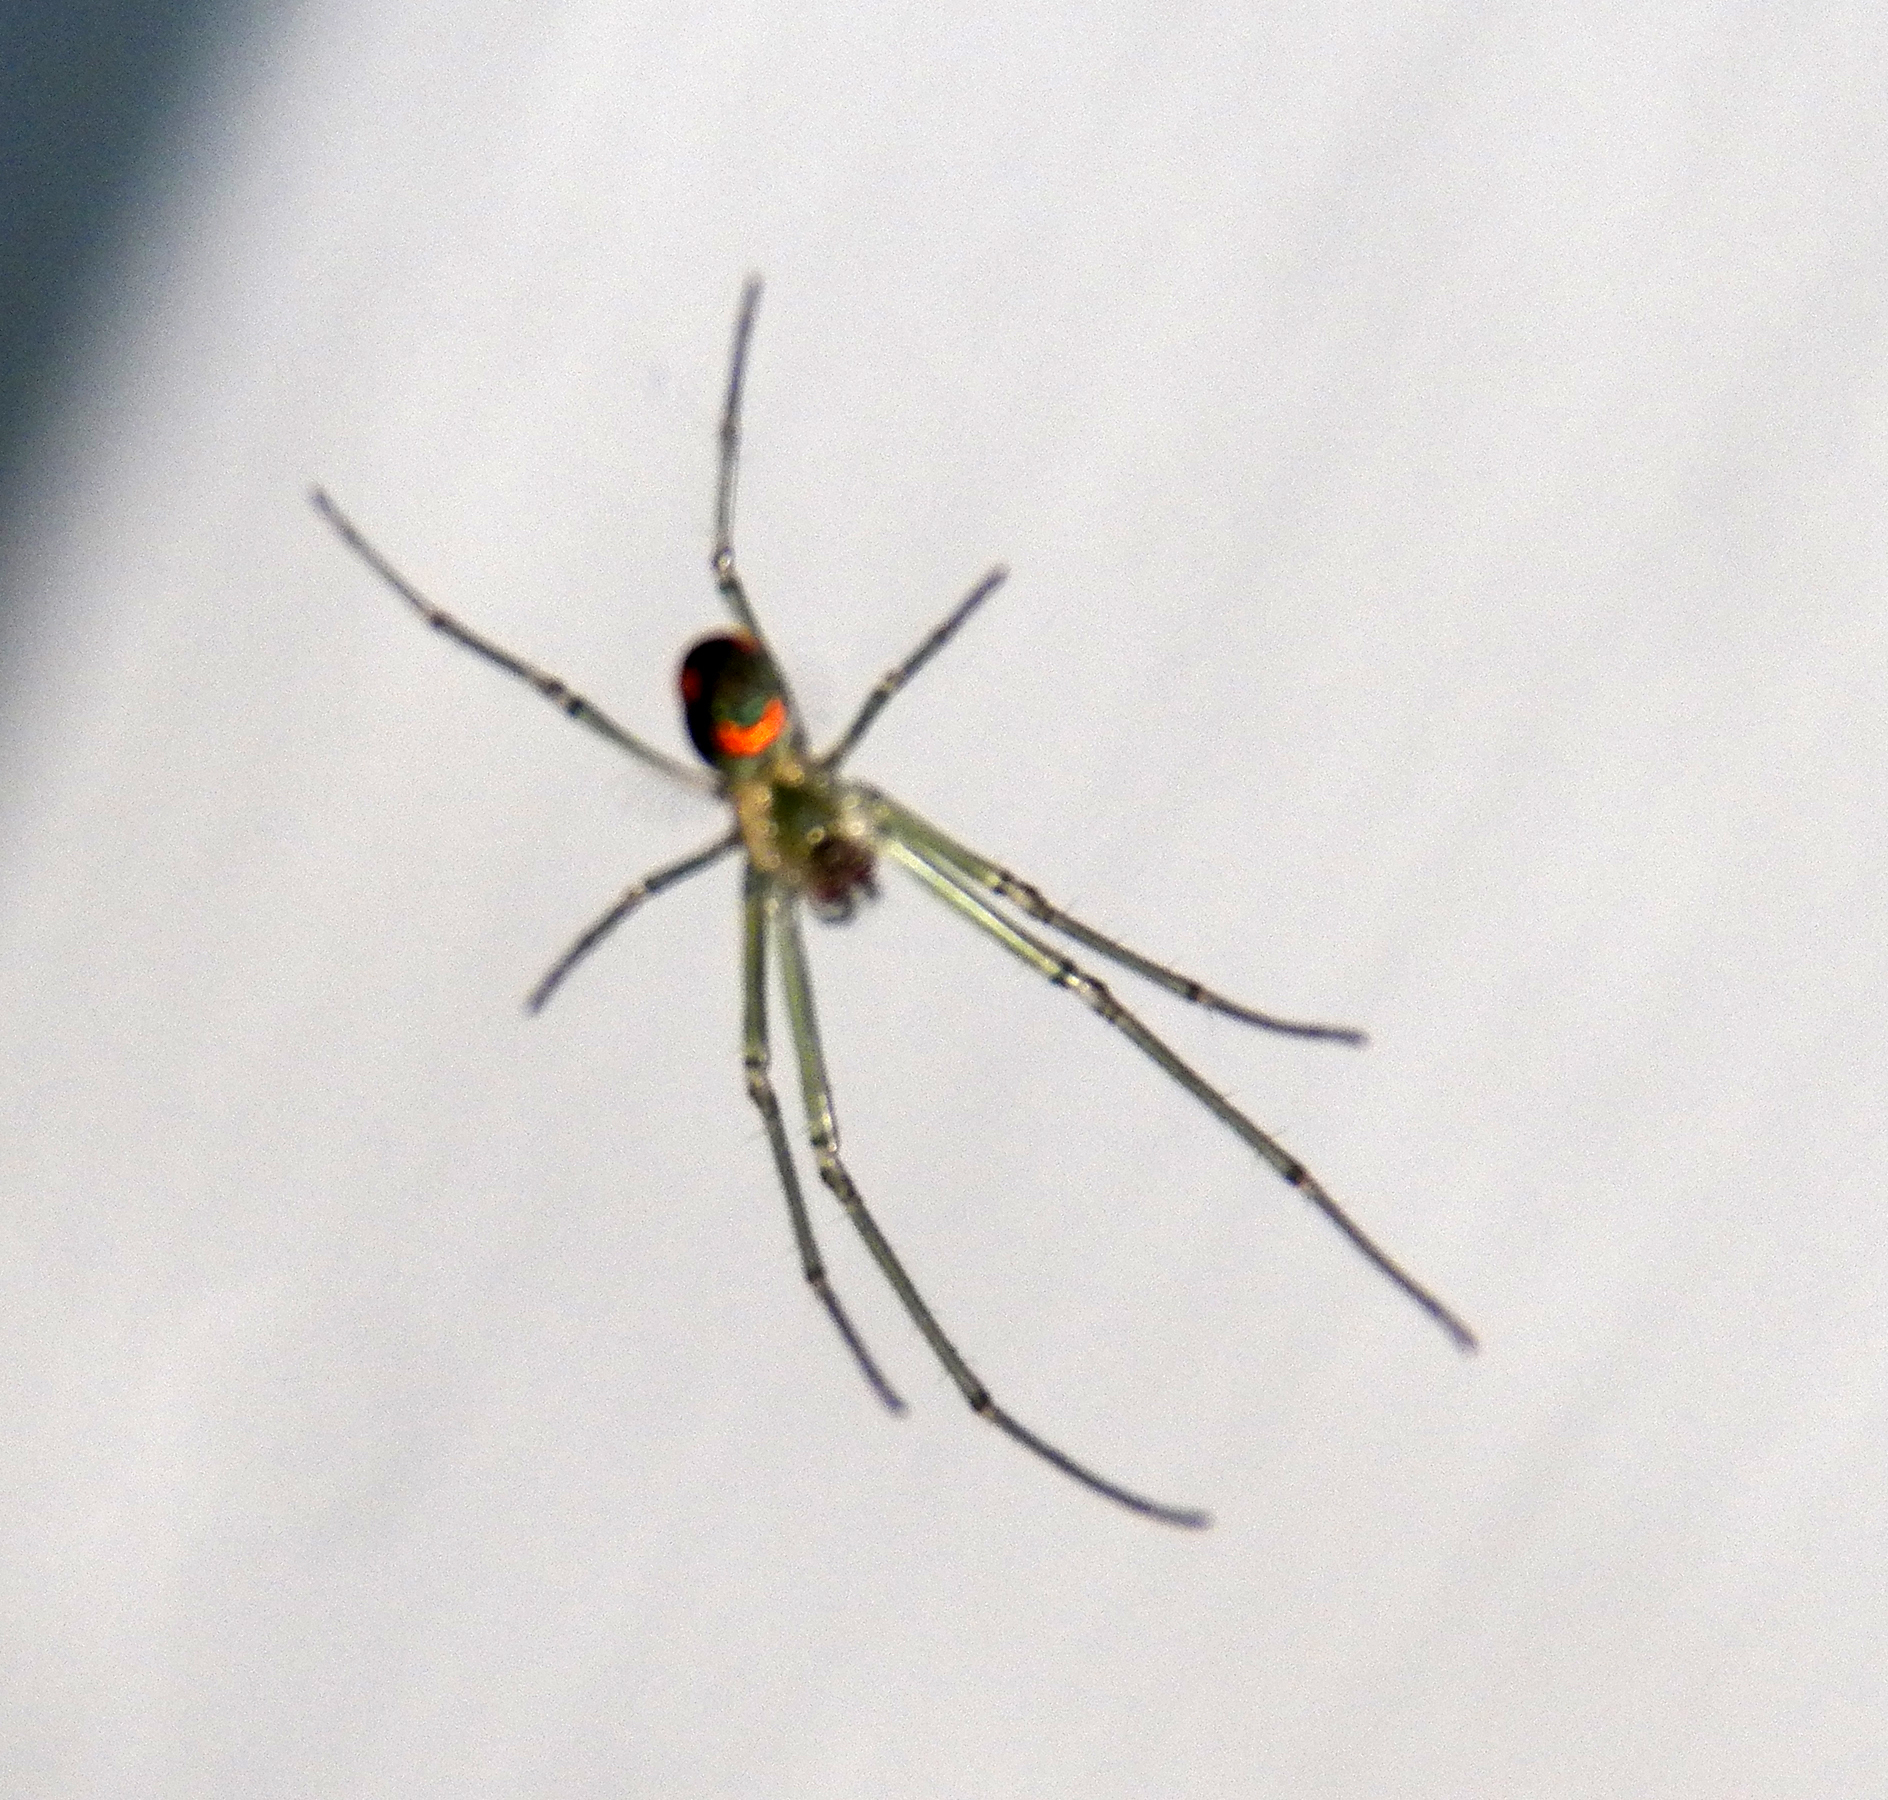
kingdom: Animalia
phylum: Arthropoda
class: Arachnida
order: Araneae
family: Tetragnathidae
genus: Leucauge
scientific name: Leucauge argyrobapta
